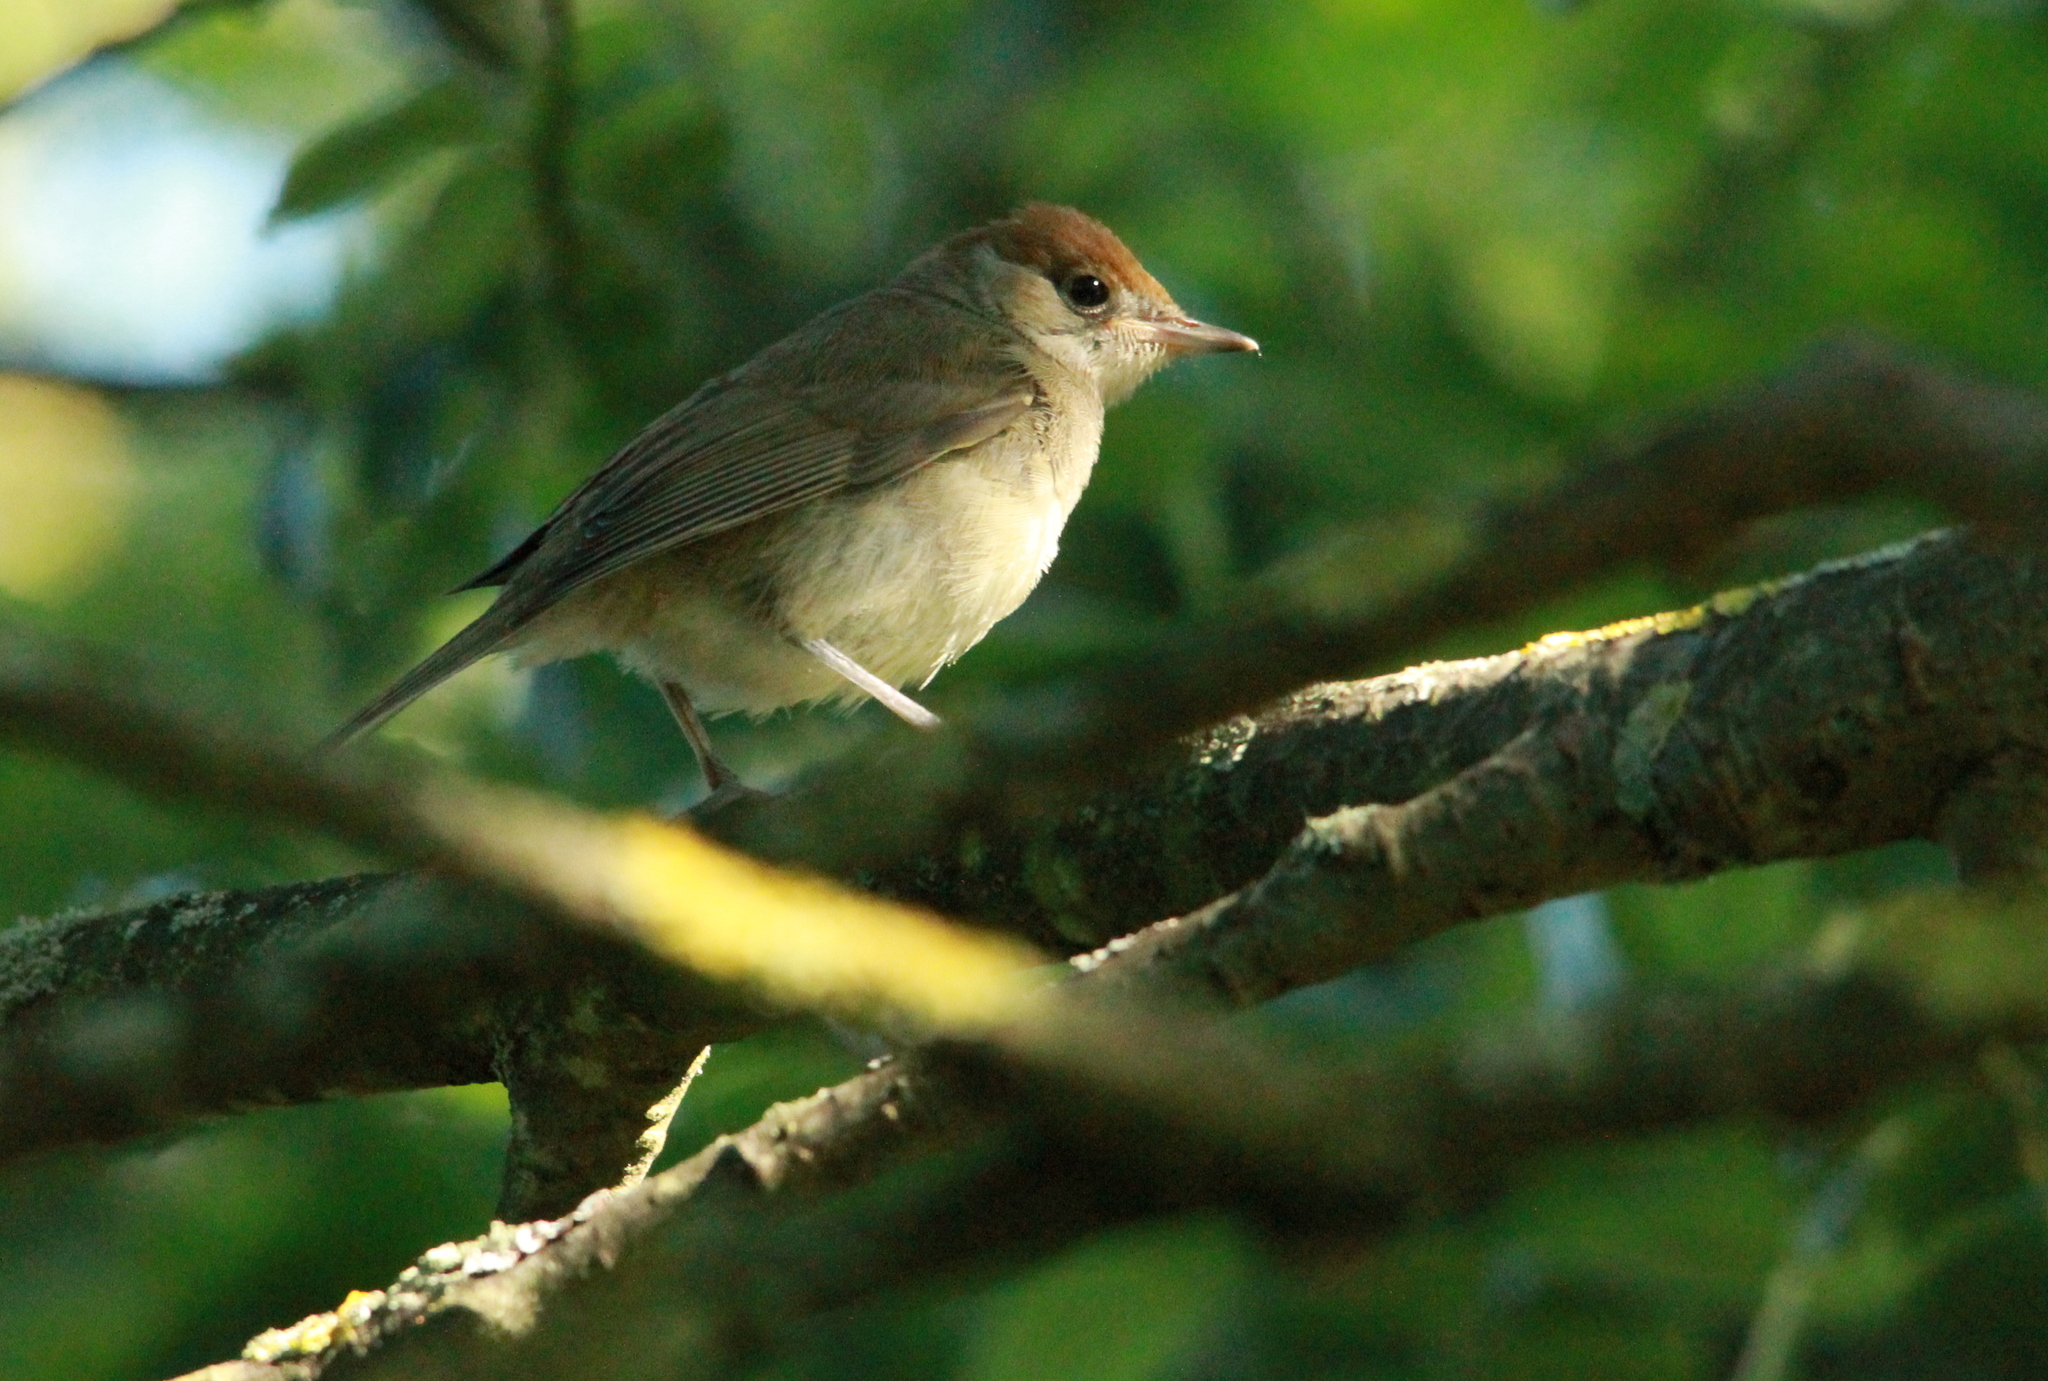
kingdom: Animalia
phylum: Chordata
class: Aves
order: Passeriformes
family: Sylviidae
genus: Sylvia
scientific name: Sylvia atricapilla
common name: Eurasian blackcap
